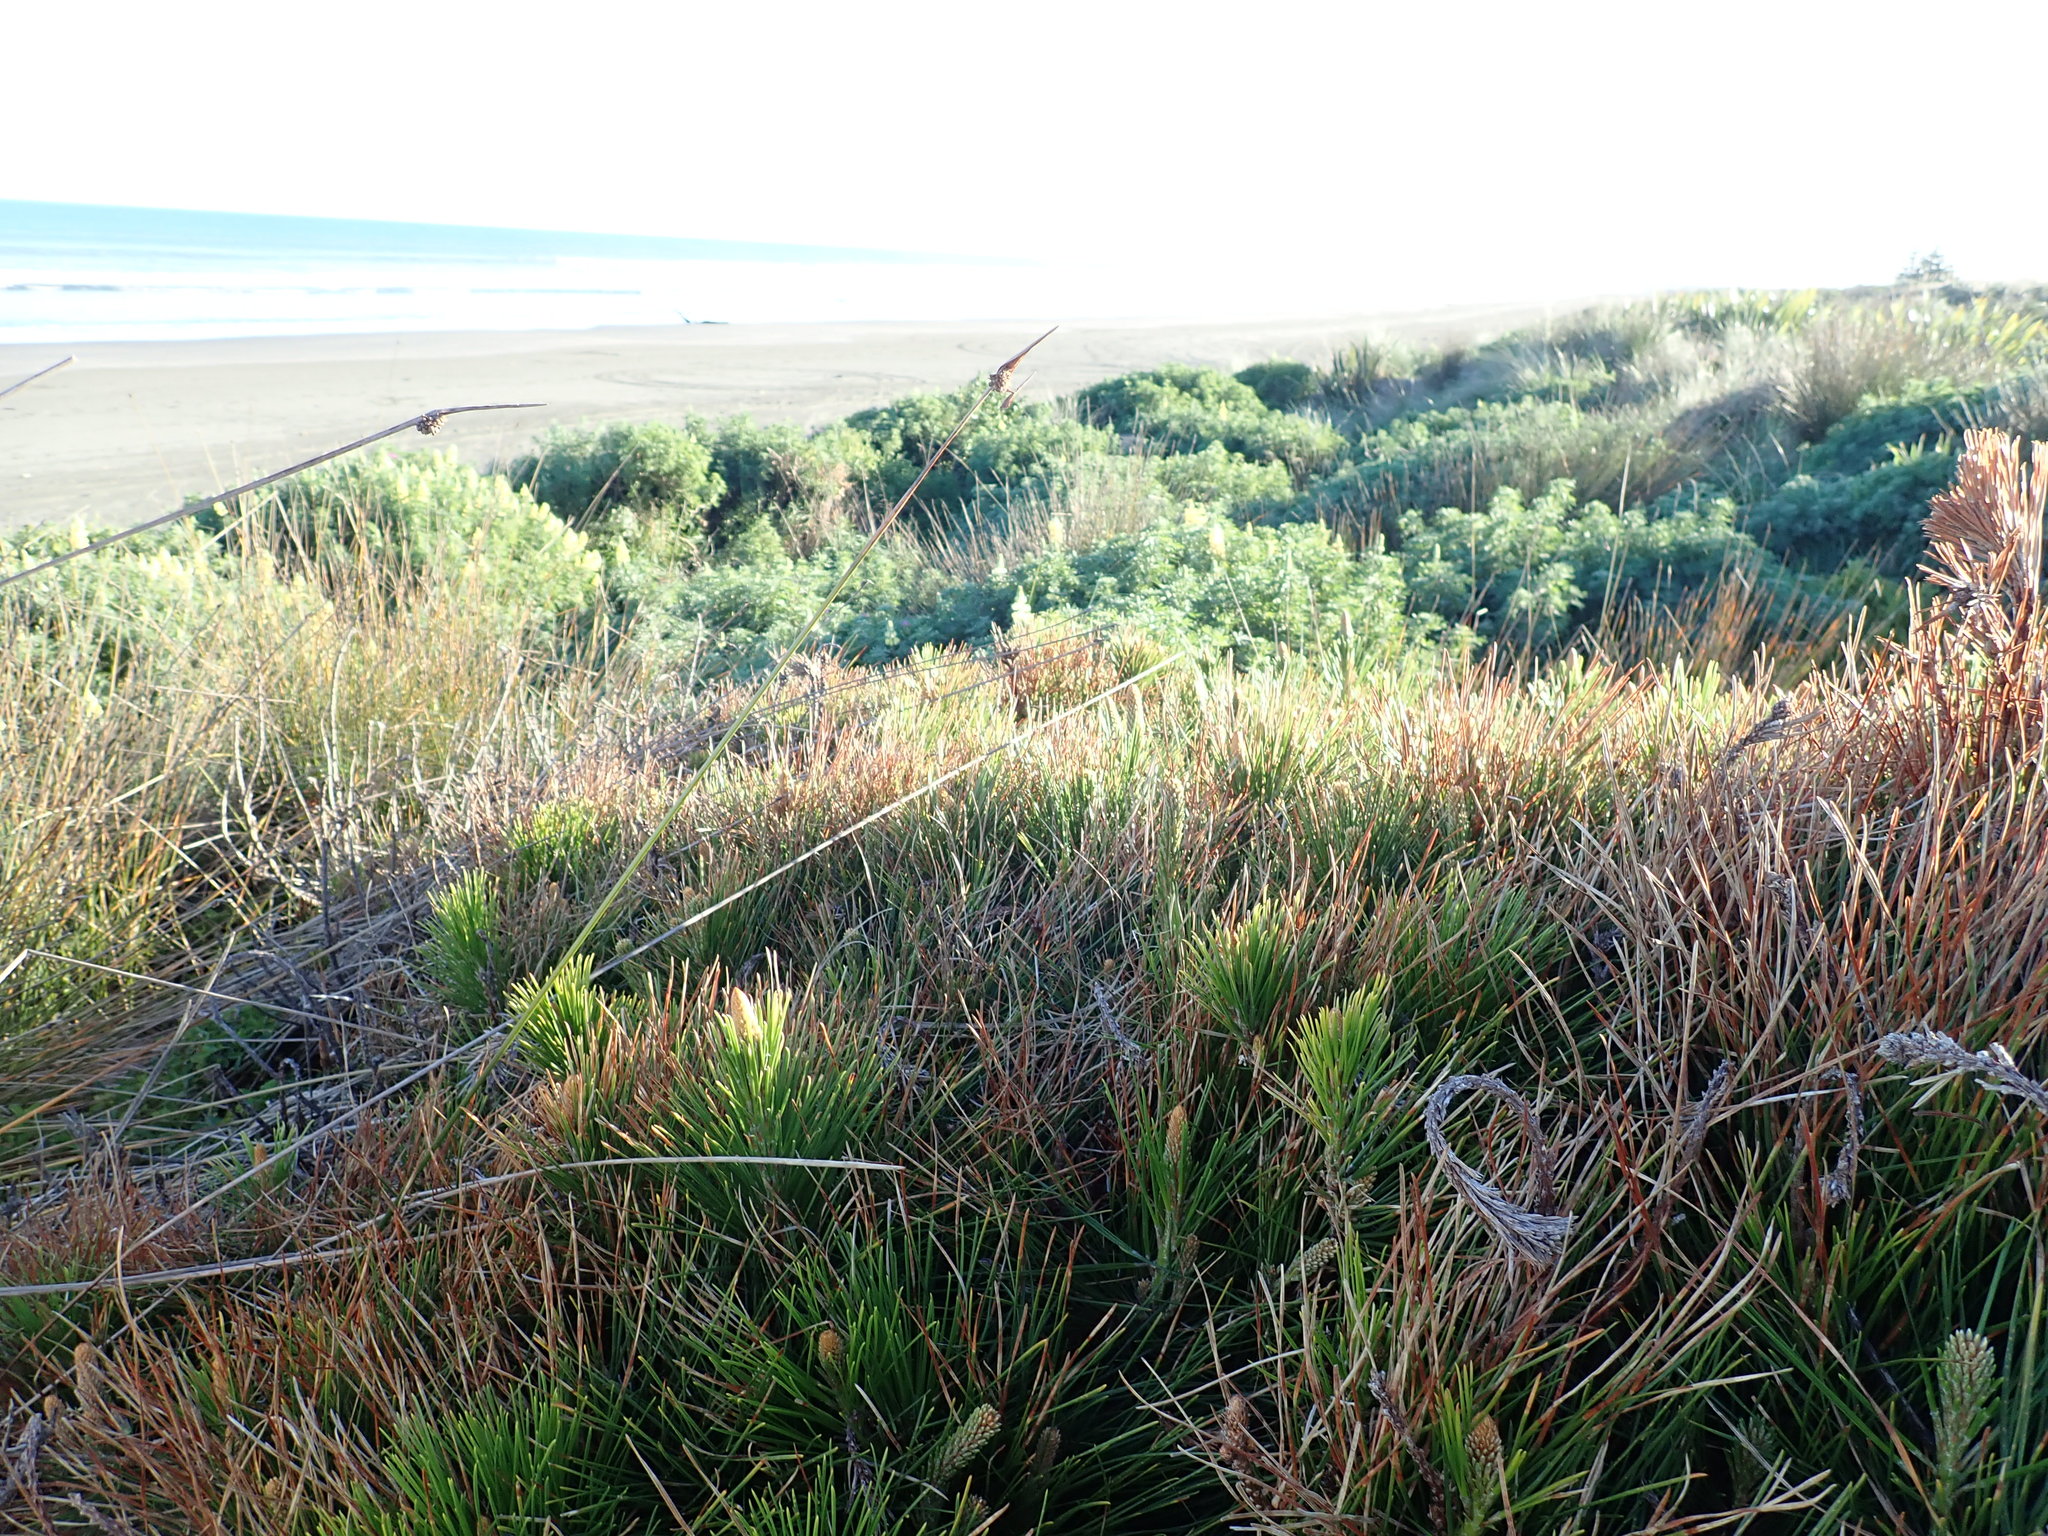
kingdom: Plantae
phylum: Tracheophyta
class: Pinopsida
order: Pinales
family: Pinaceae
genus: Pinus
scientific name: Pinus radiata
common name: Monterey pine
